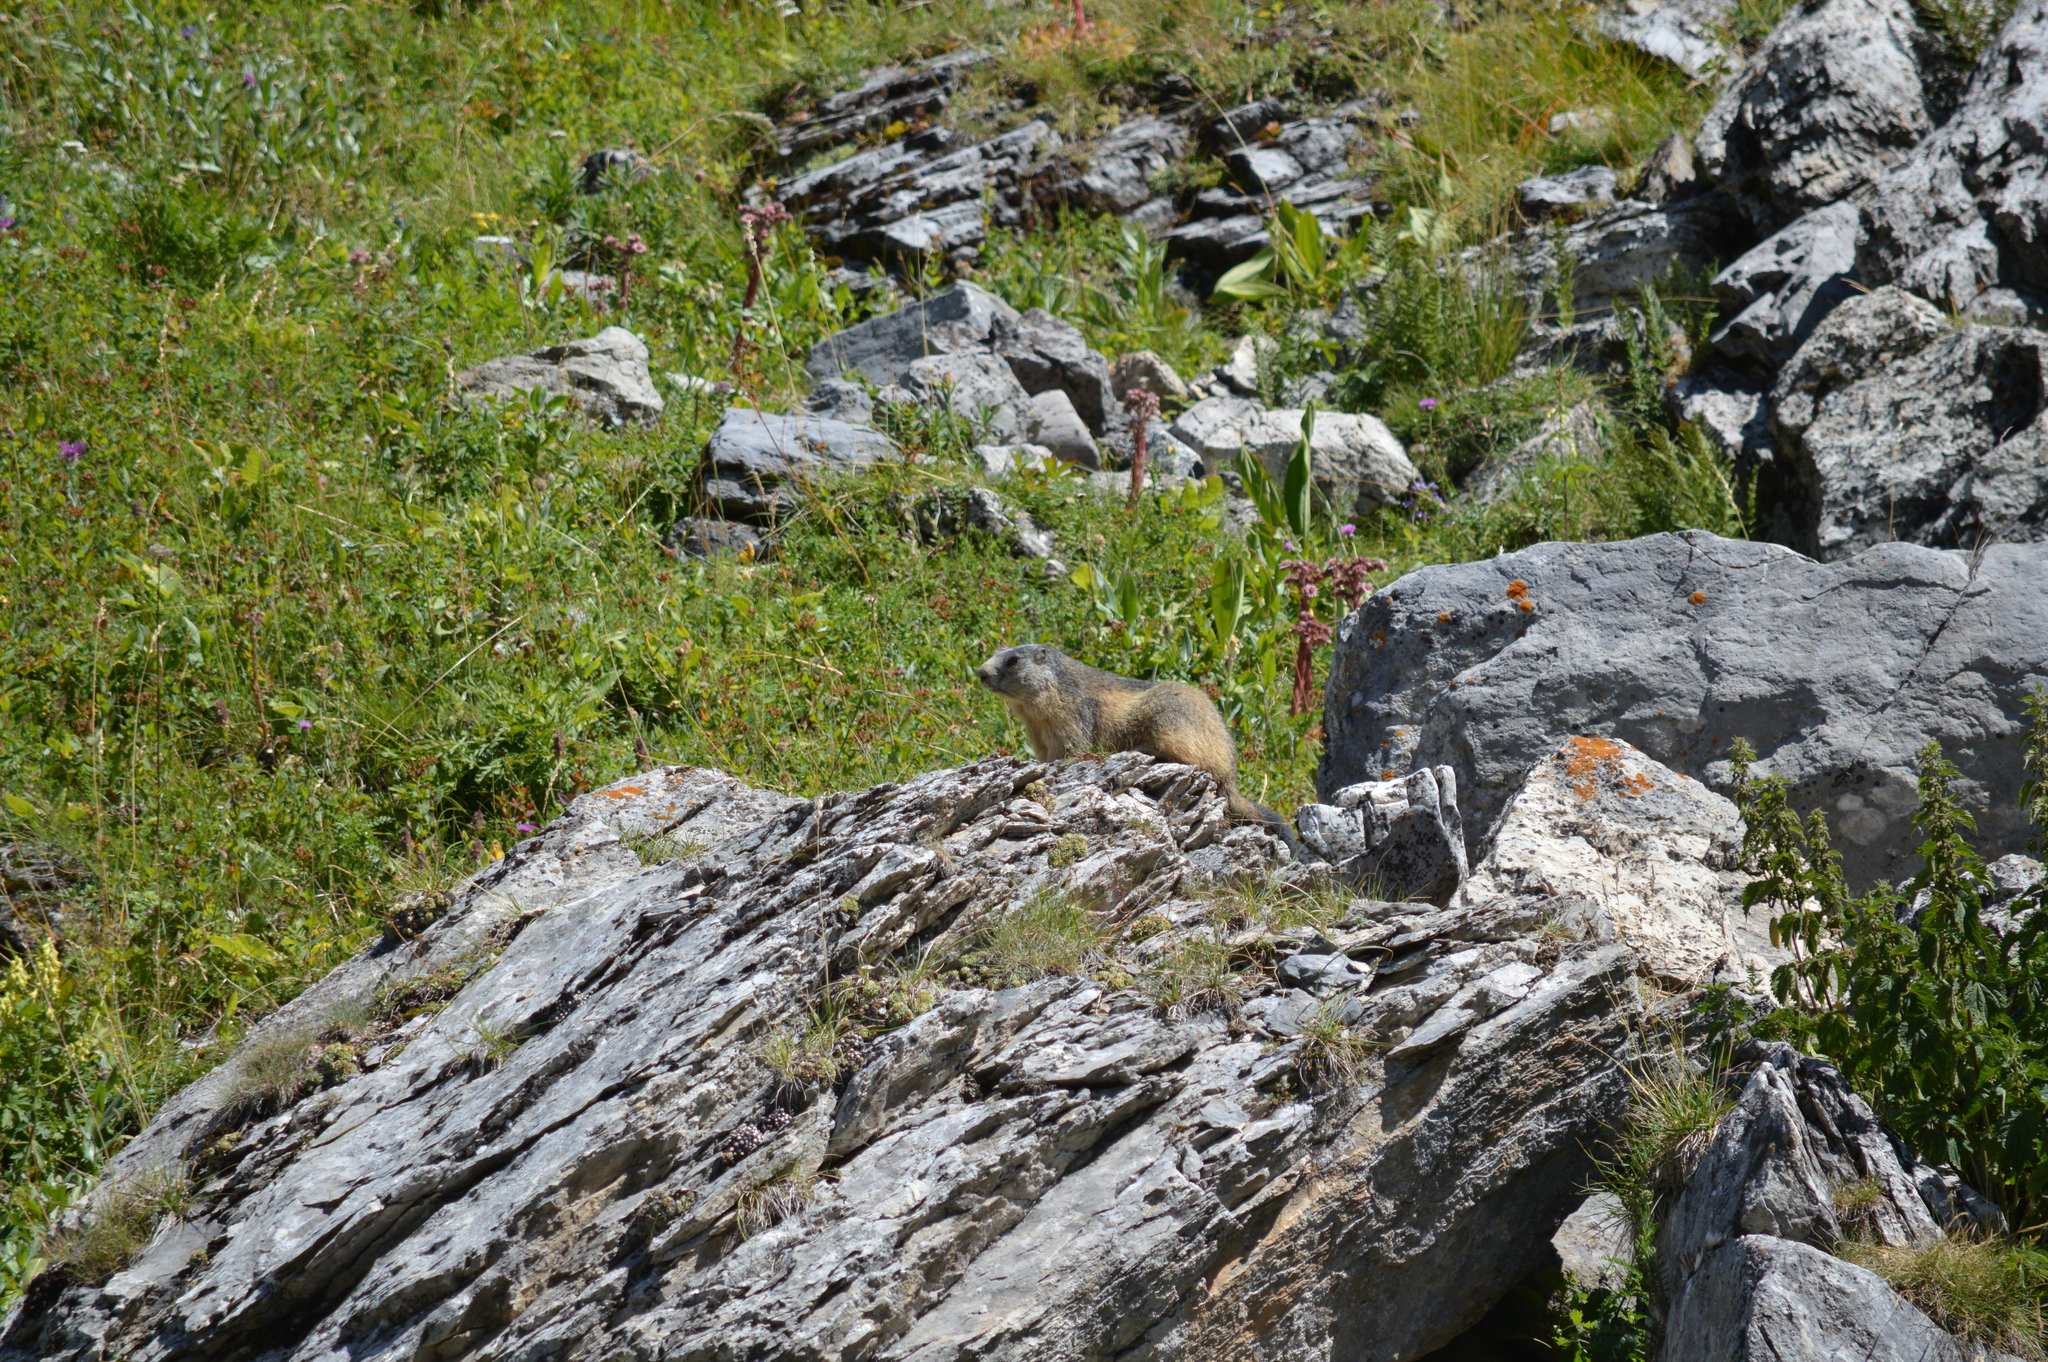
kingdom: Animalia
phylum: Chordata
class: Mammalia
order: Rodentia
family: Sciuridae
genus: Marmota
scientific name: Marmota marmota
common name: Alpine marmot
